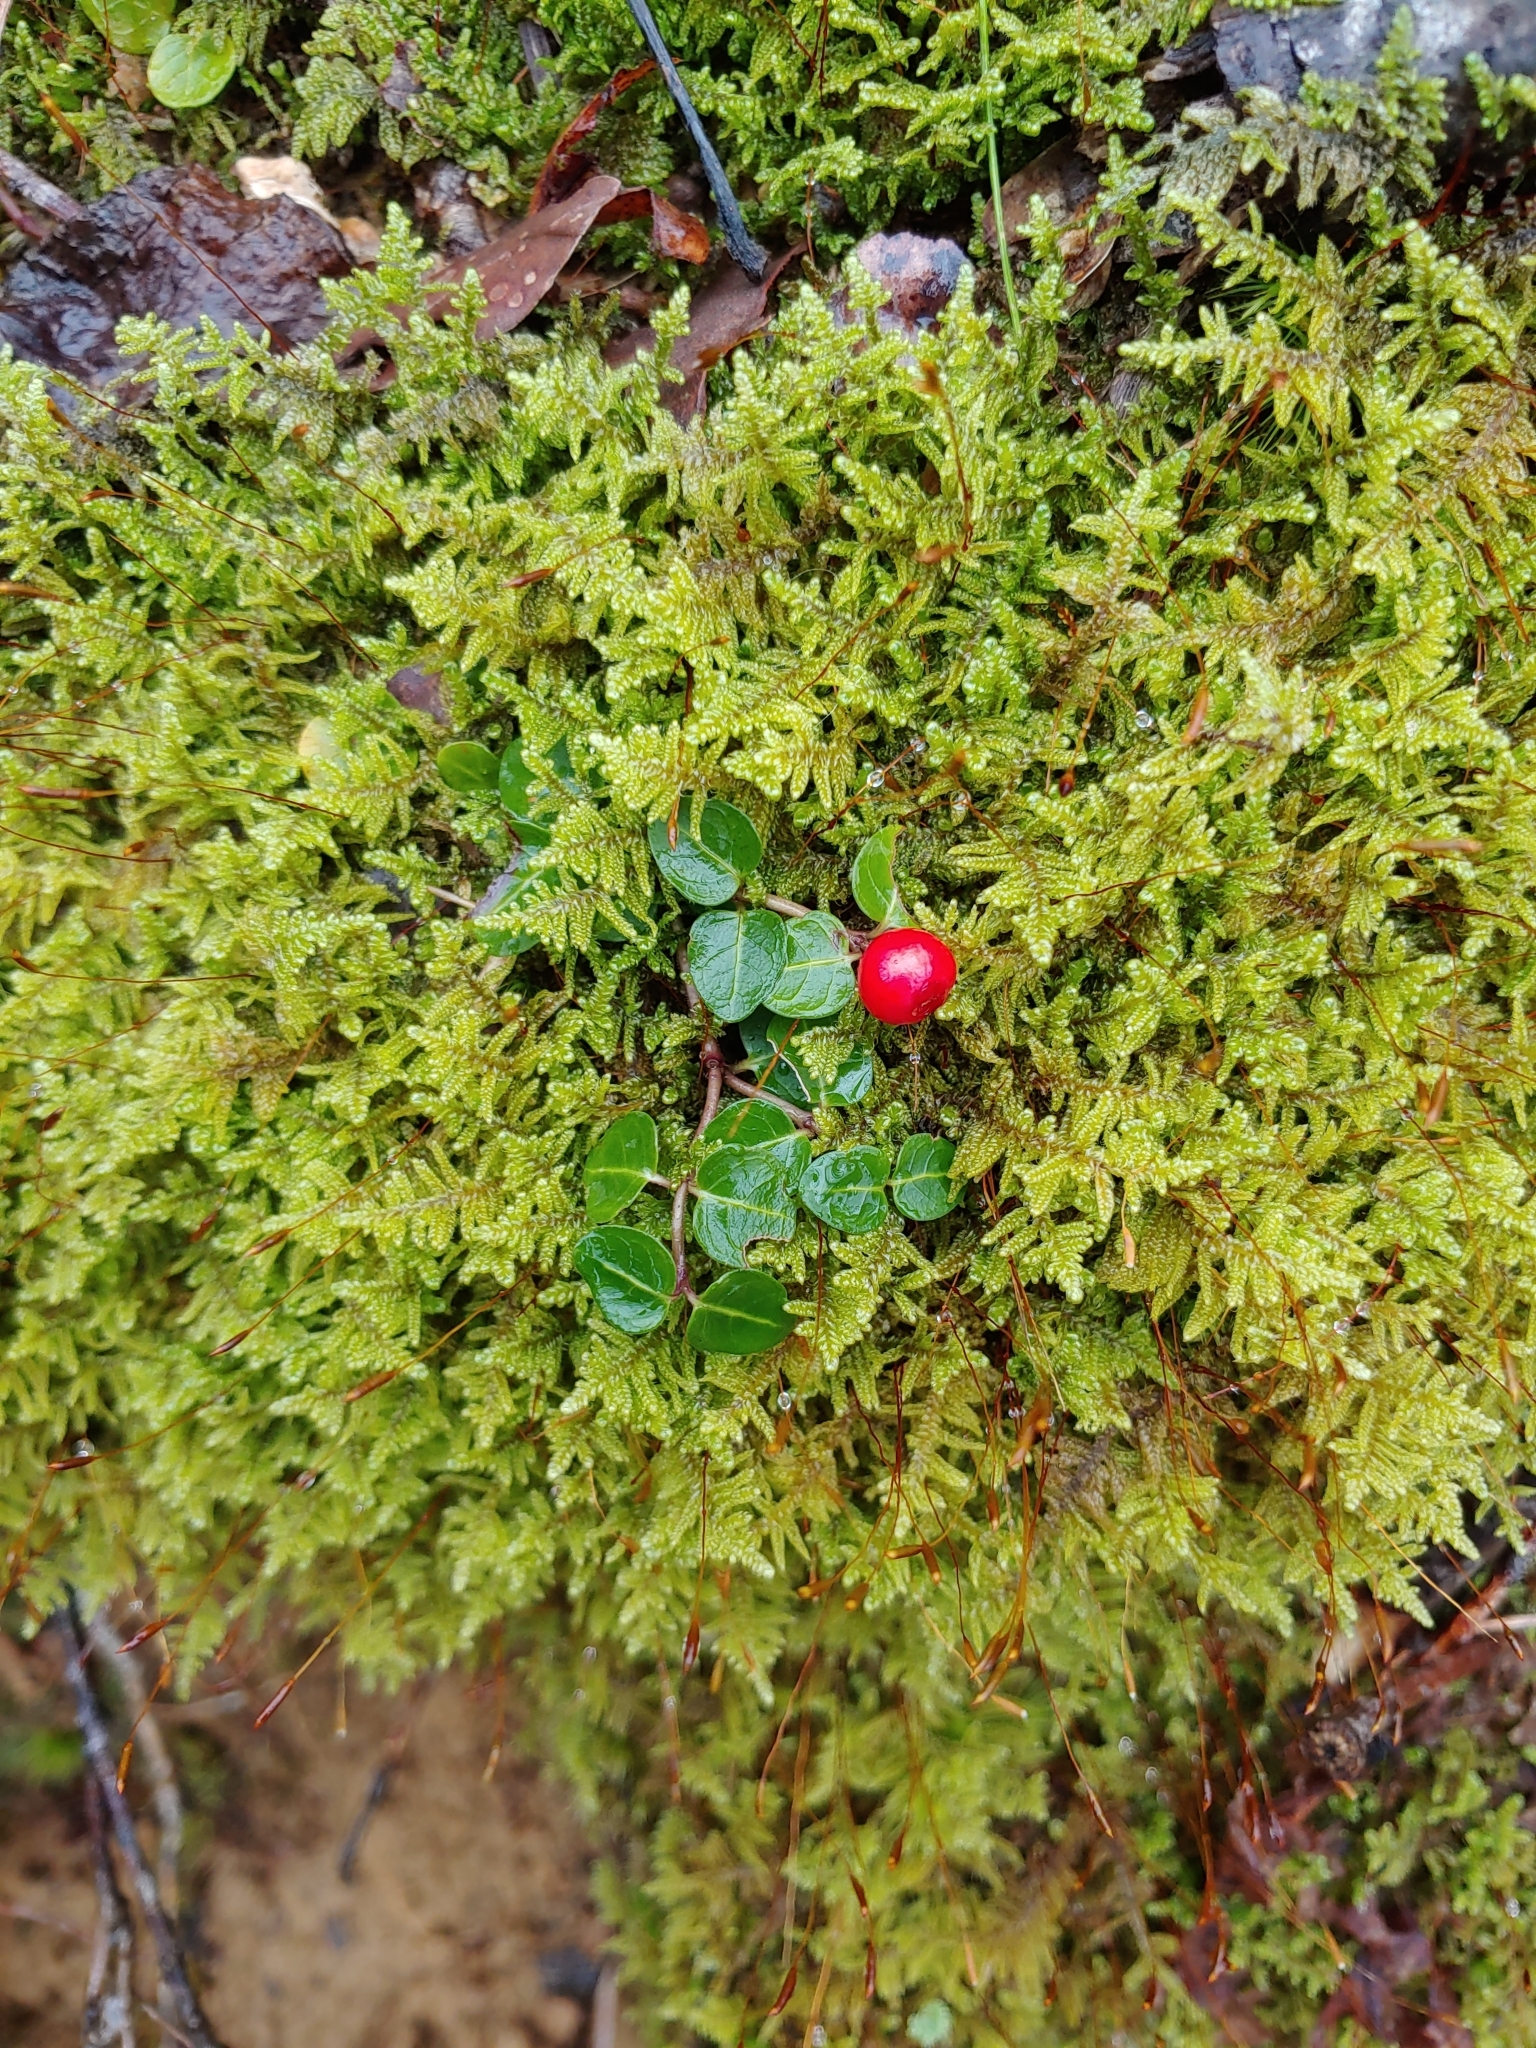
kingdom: Plantae
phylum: Tracheophyta
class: Magnoliopsida
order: Gentianales
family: Rubiaceae
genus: Mitchella
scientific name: Mitchella repens
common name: Partridge-berry
